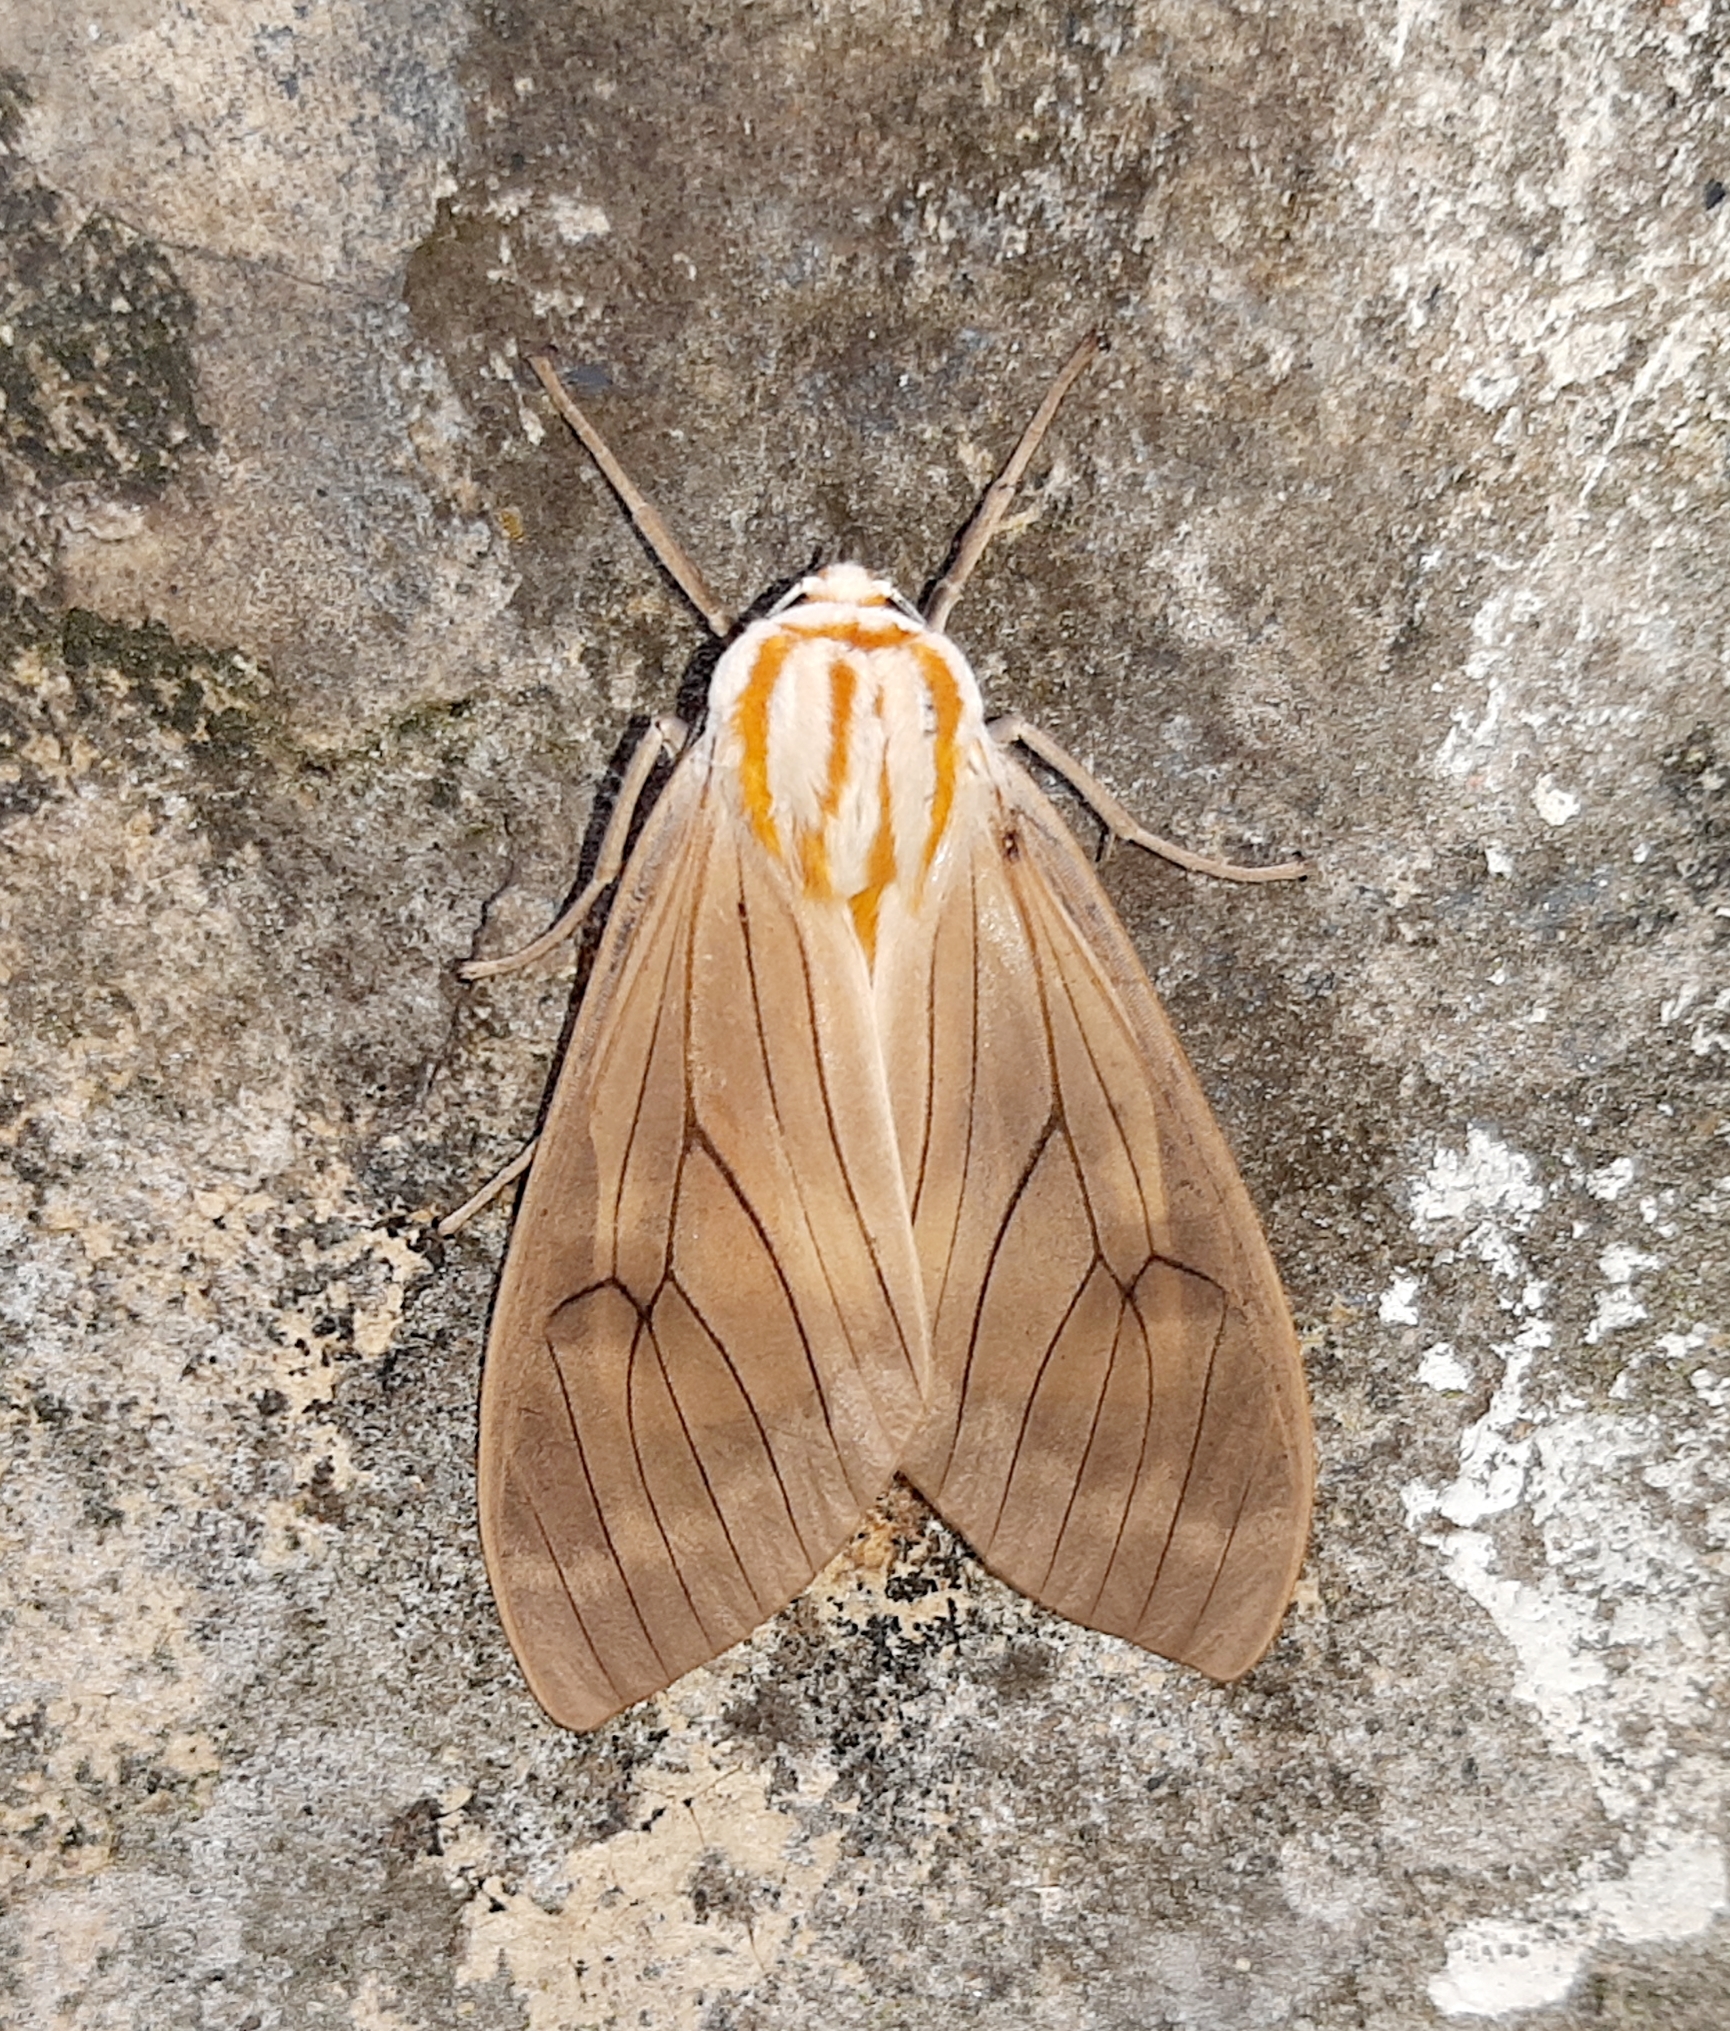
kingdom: Animalia
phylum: Arthropoda
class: Insecta
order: Lepidoptera
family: Erebidae
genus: Amastus
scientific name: Amastus aconia
